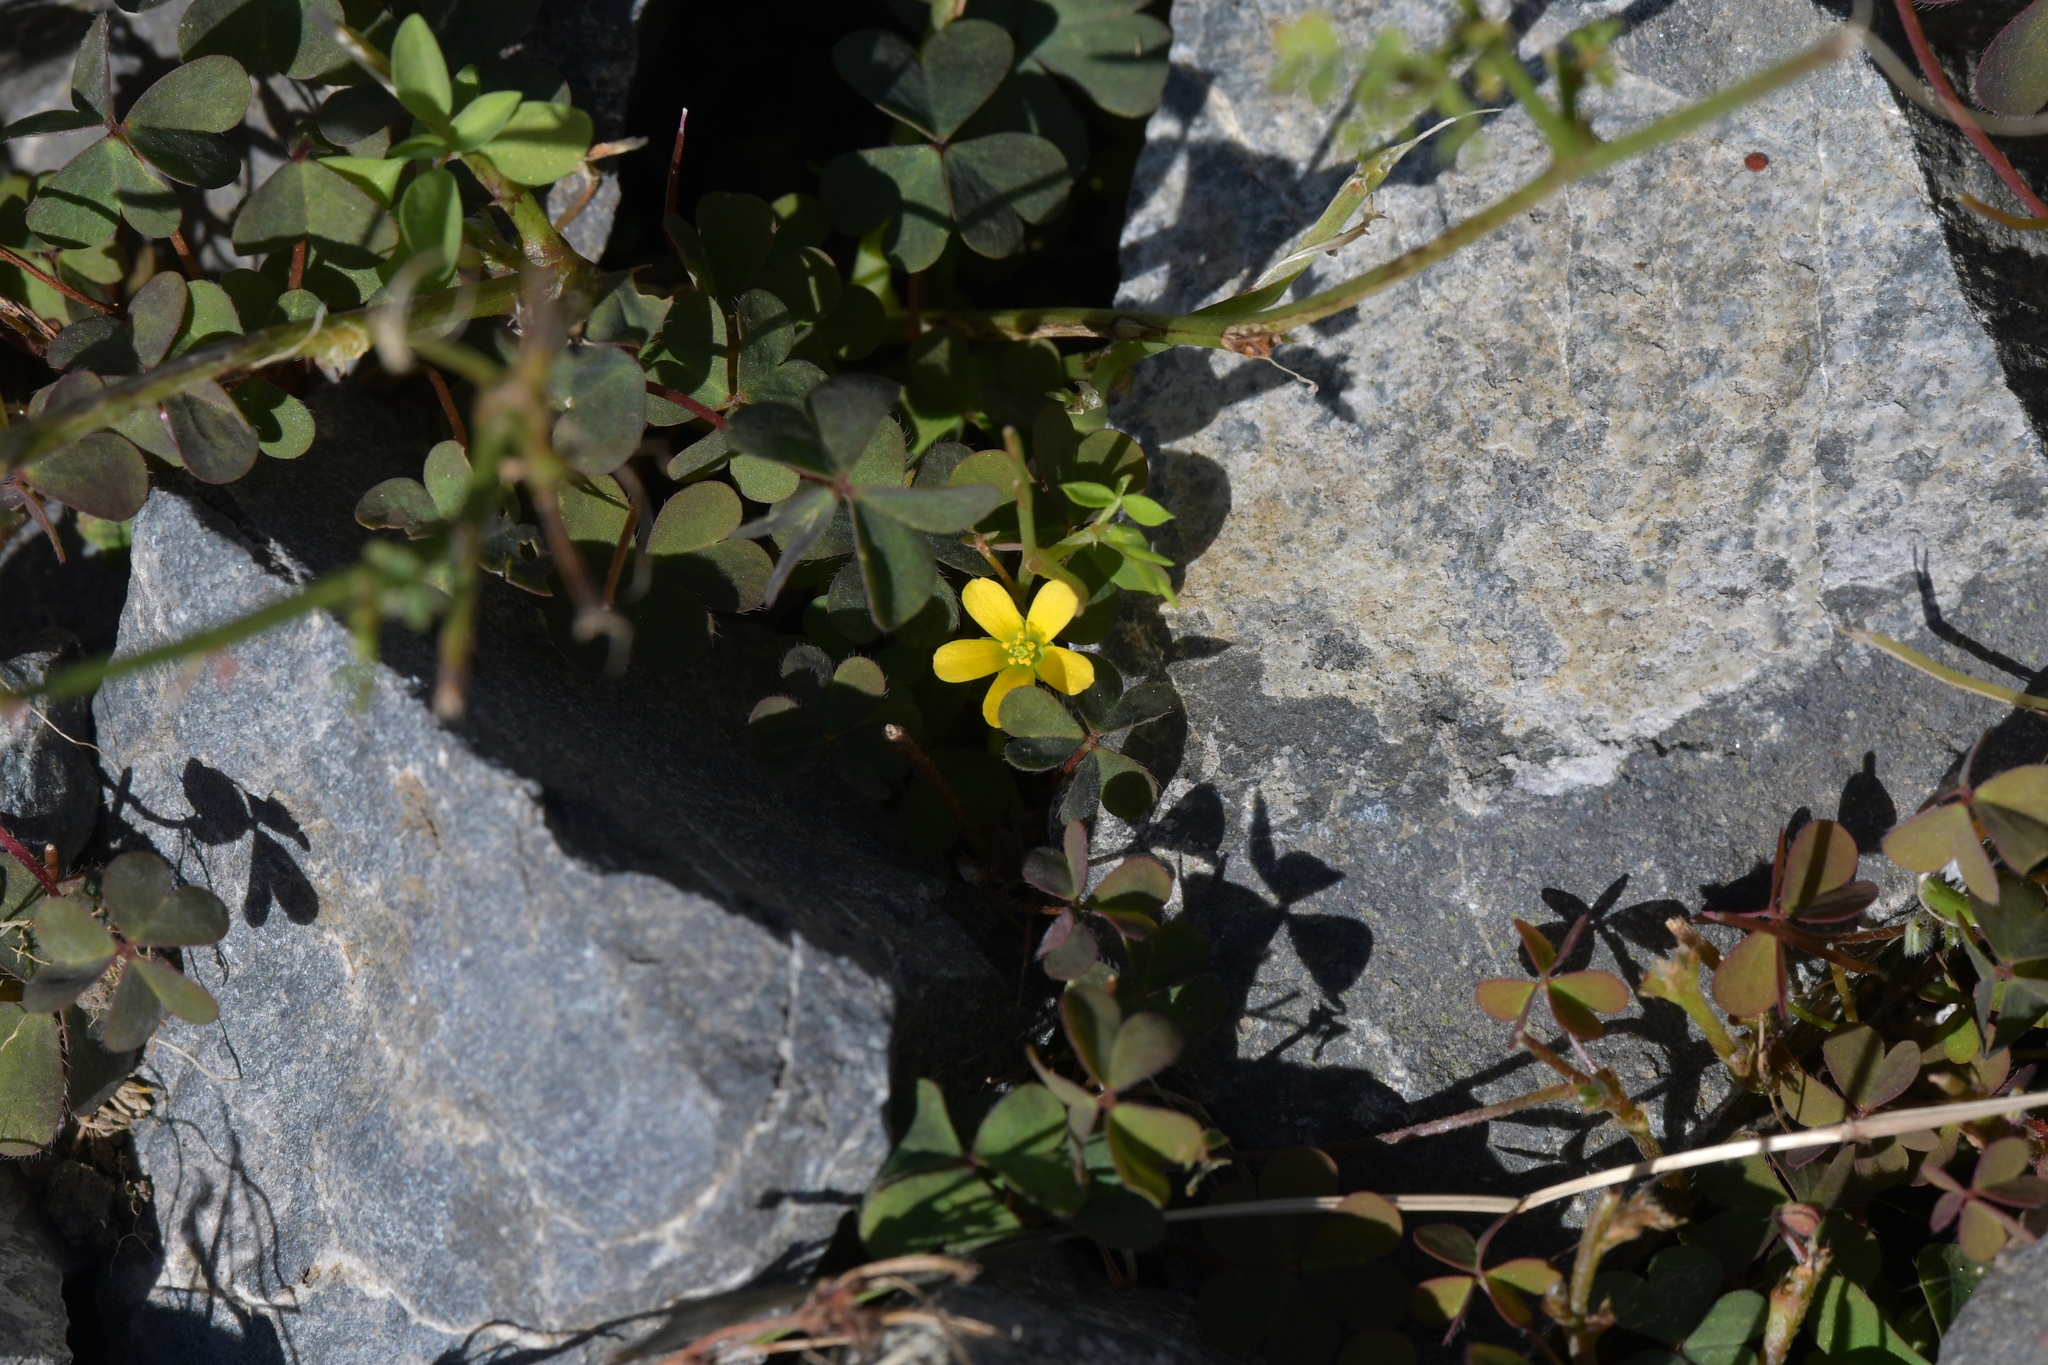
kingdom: Plantae
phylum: Tracheophyta
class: Magnoliopsida
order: Oxalidales
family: Oxalidaceae
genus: Oxalis
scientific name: Oxalis corniculata
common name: Procumbent yellow-sorrel
